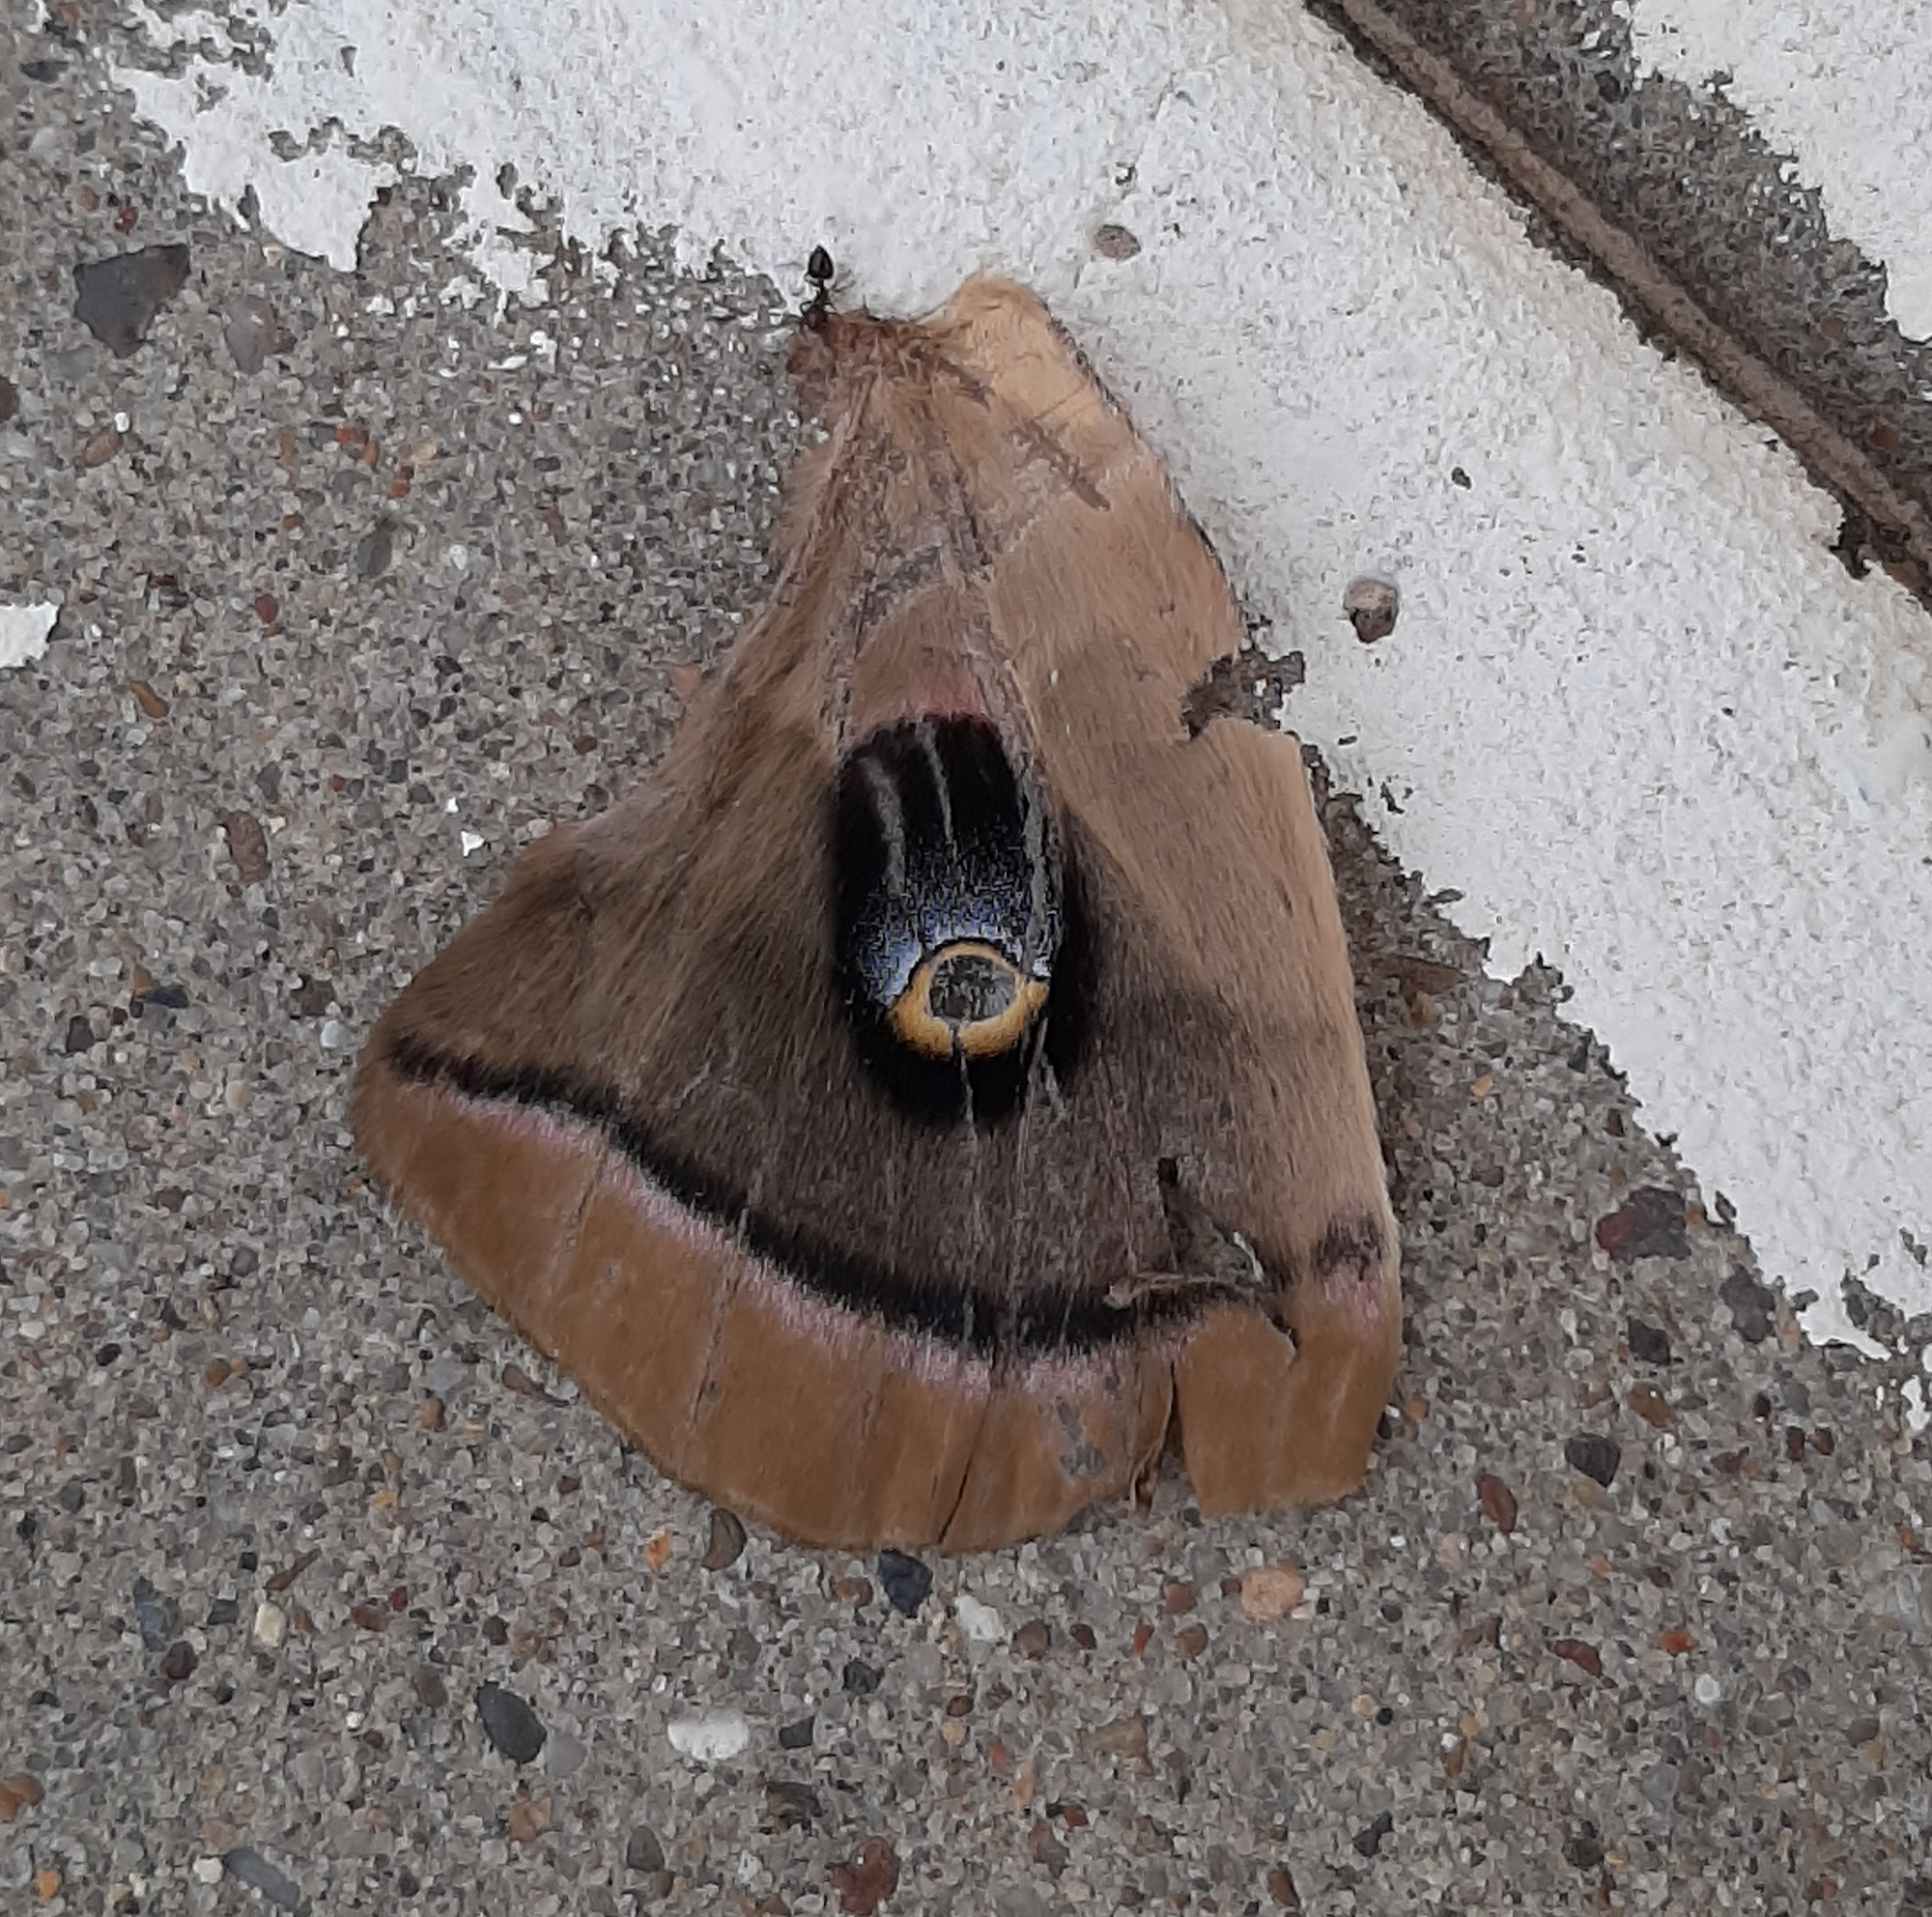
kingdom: Animalia
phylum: Arthropoda
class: Insecta
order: Lepidoptera
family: Saturniidae
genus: Antheraea
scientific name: Antheraea polyphemus
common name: Polyphemus moth
